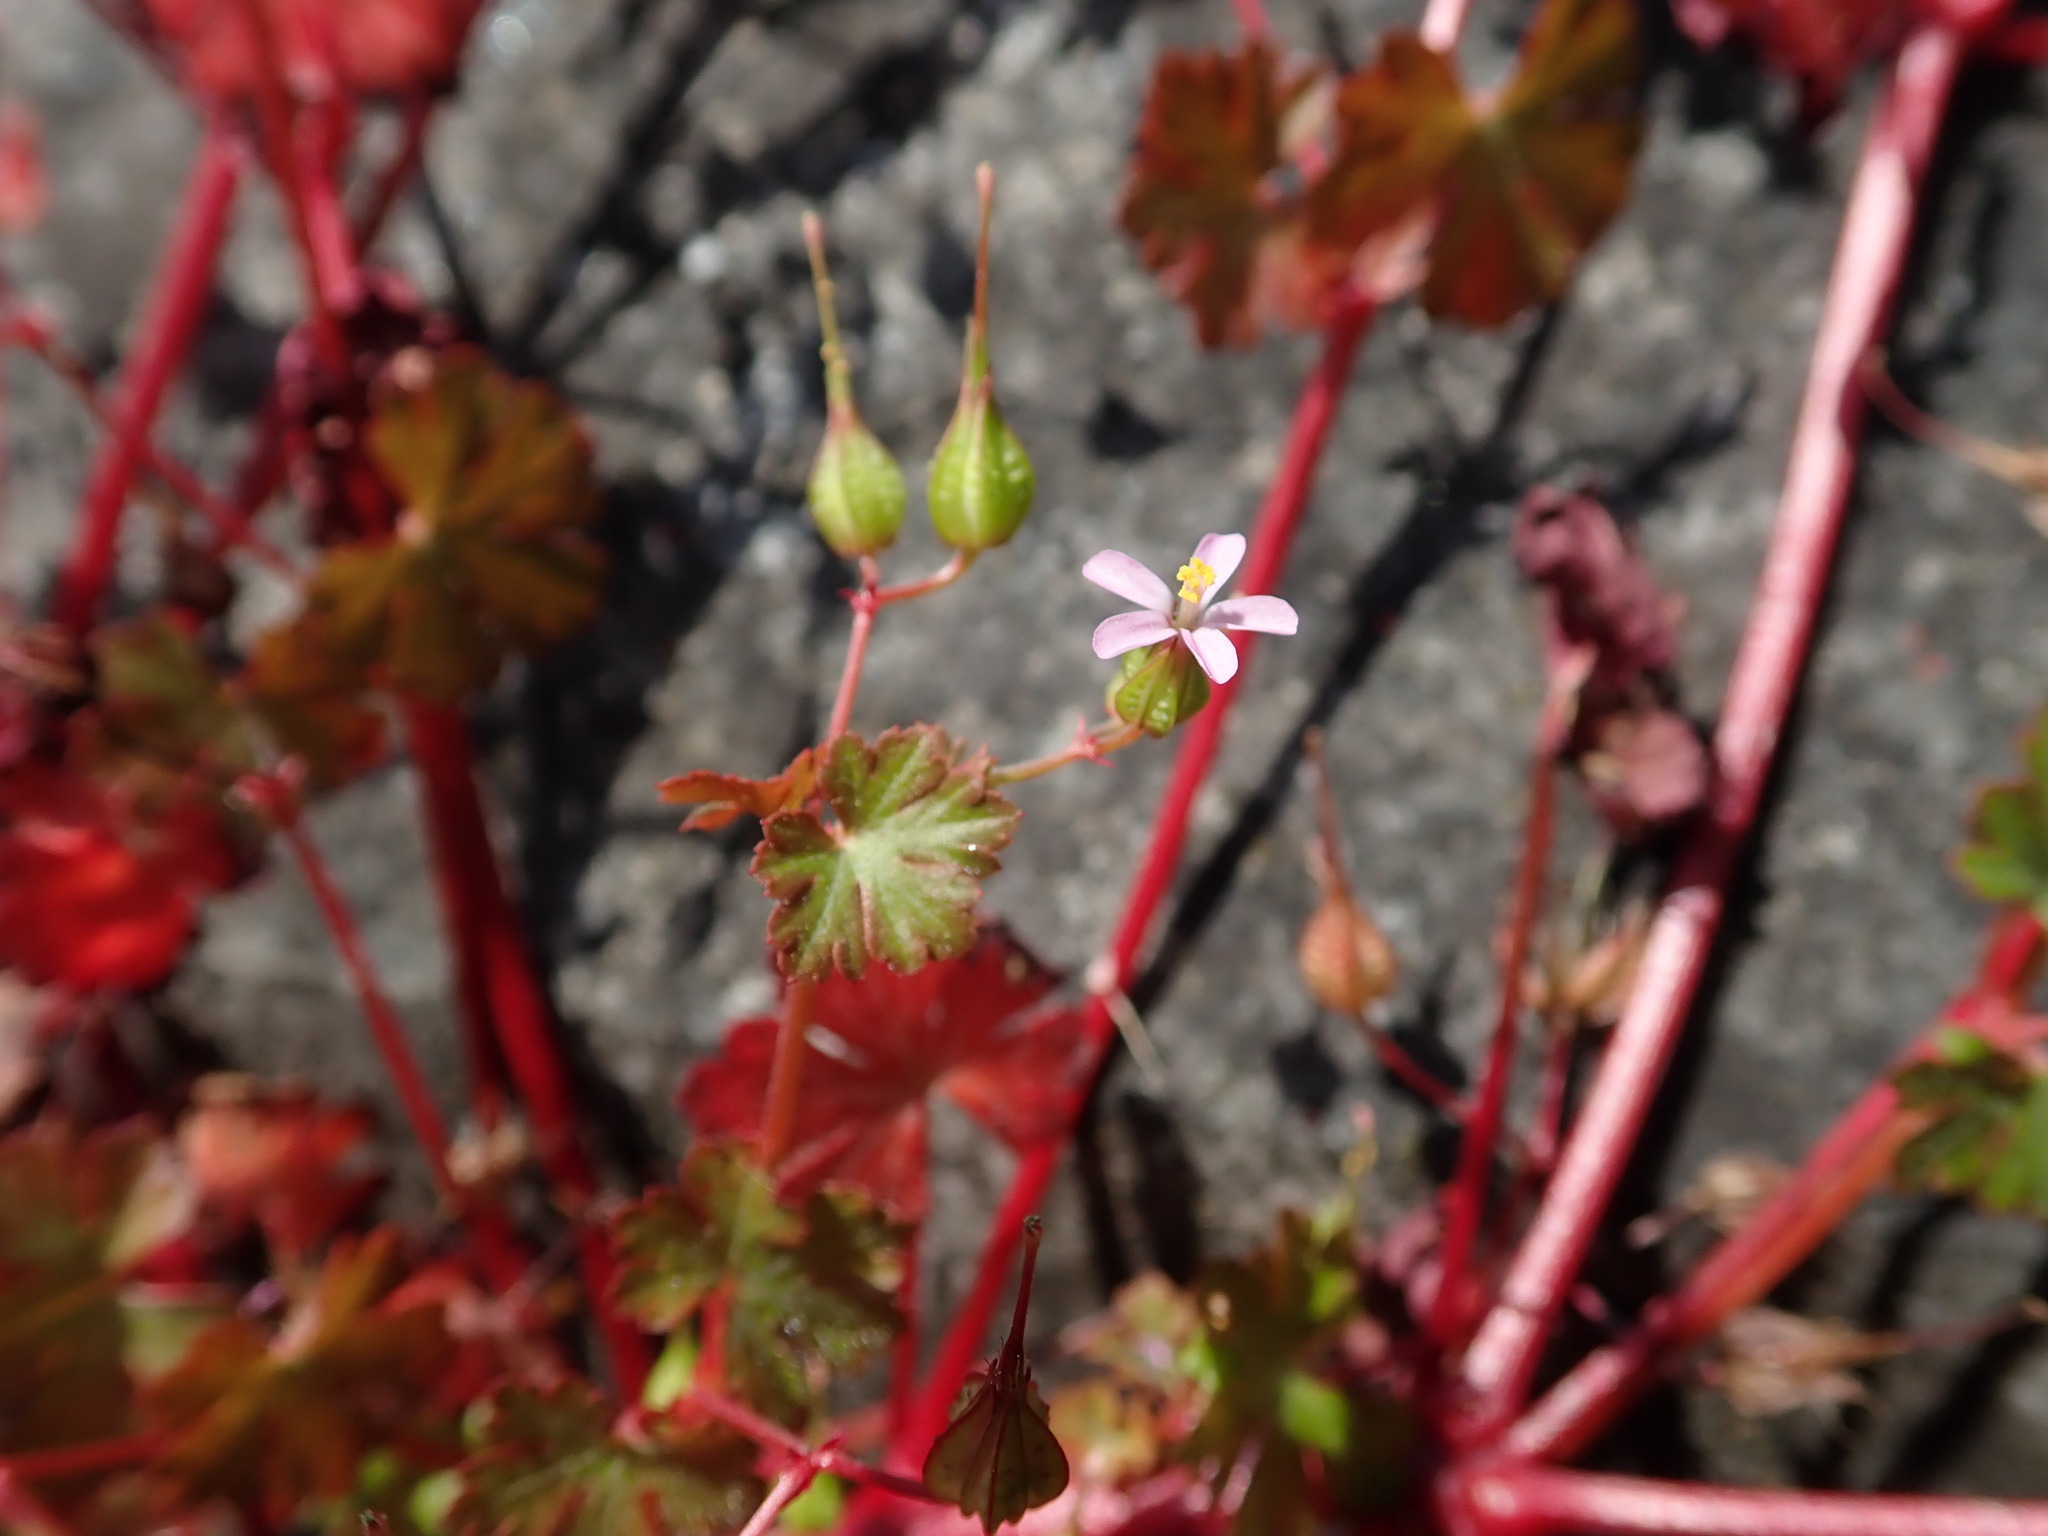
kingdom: Plantae
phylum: Tracheophyta
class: Magnoliopsida
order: Geraniales
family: Geraniaceae
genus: Geranium
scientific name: Geranium lucidum
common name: Shining crane's-bill
